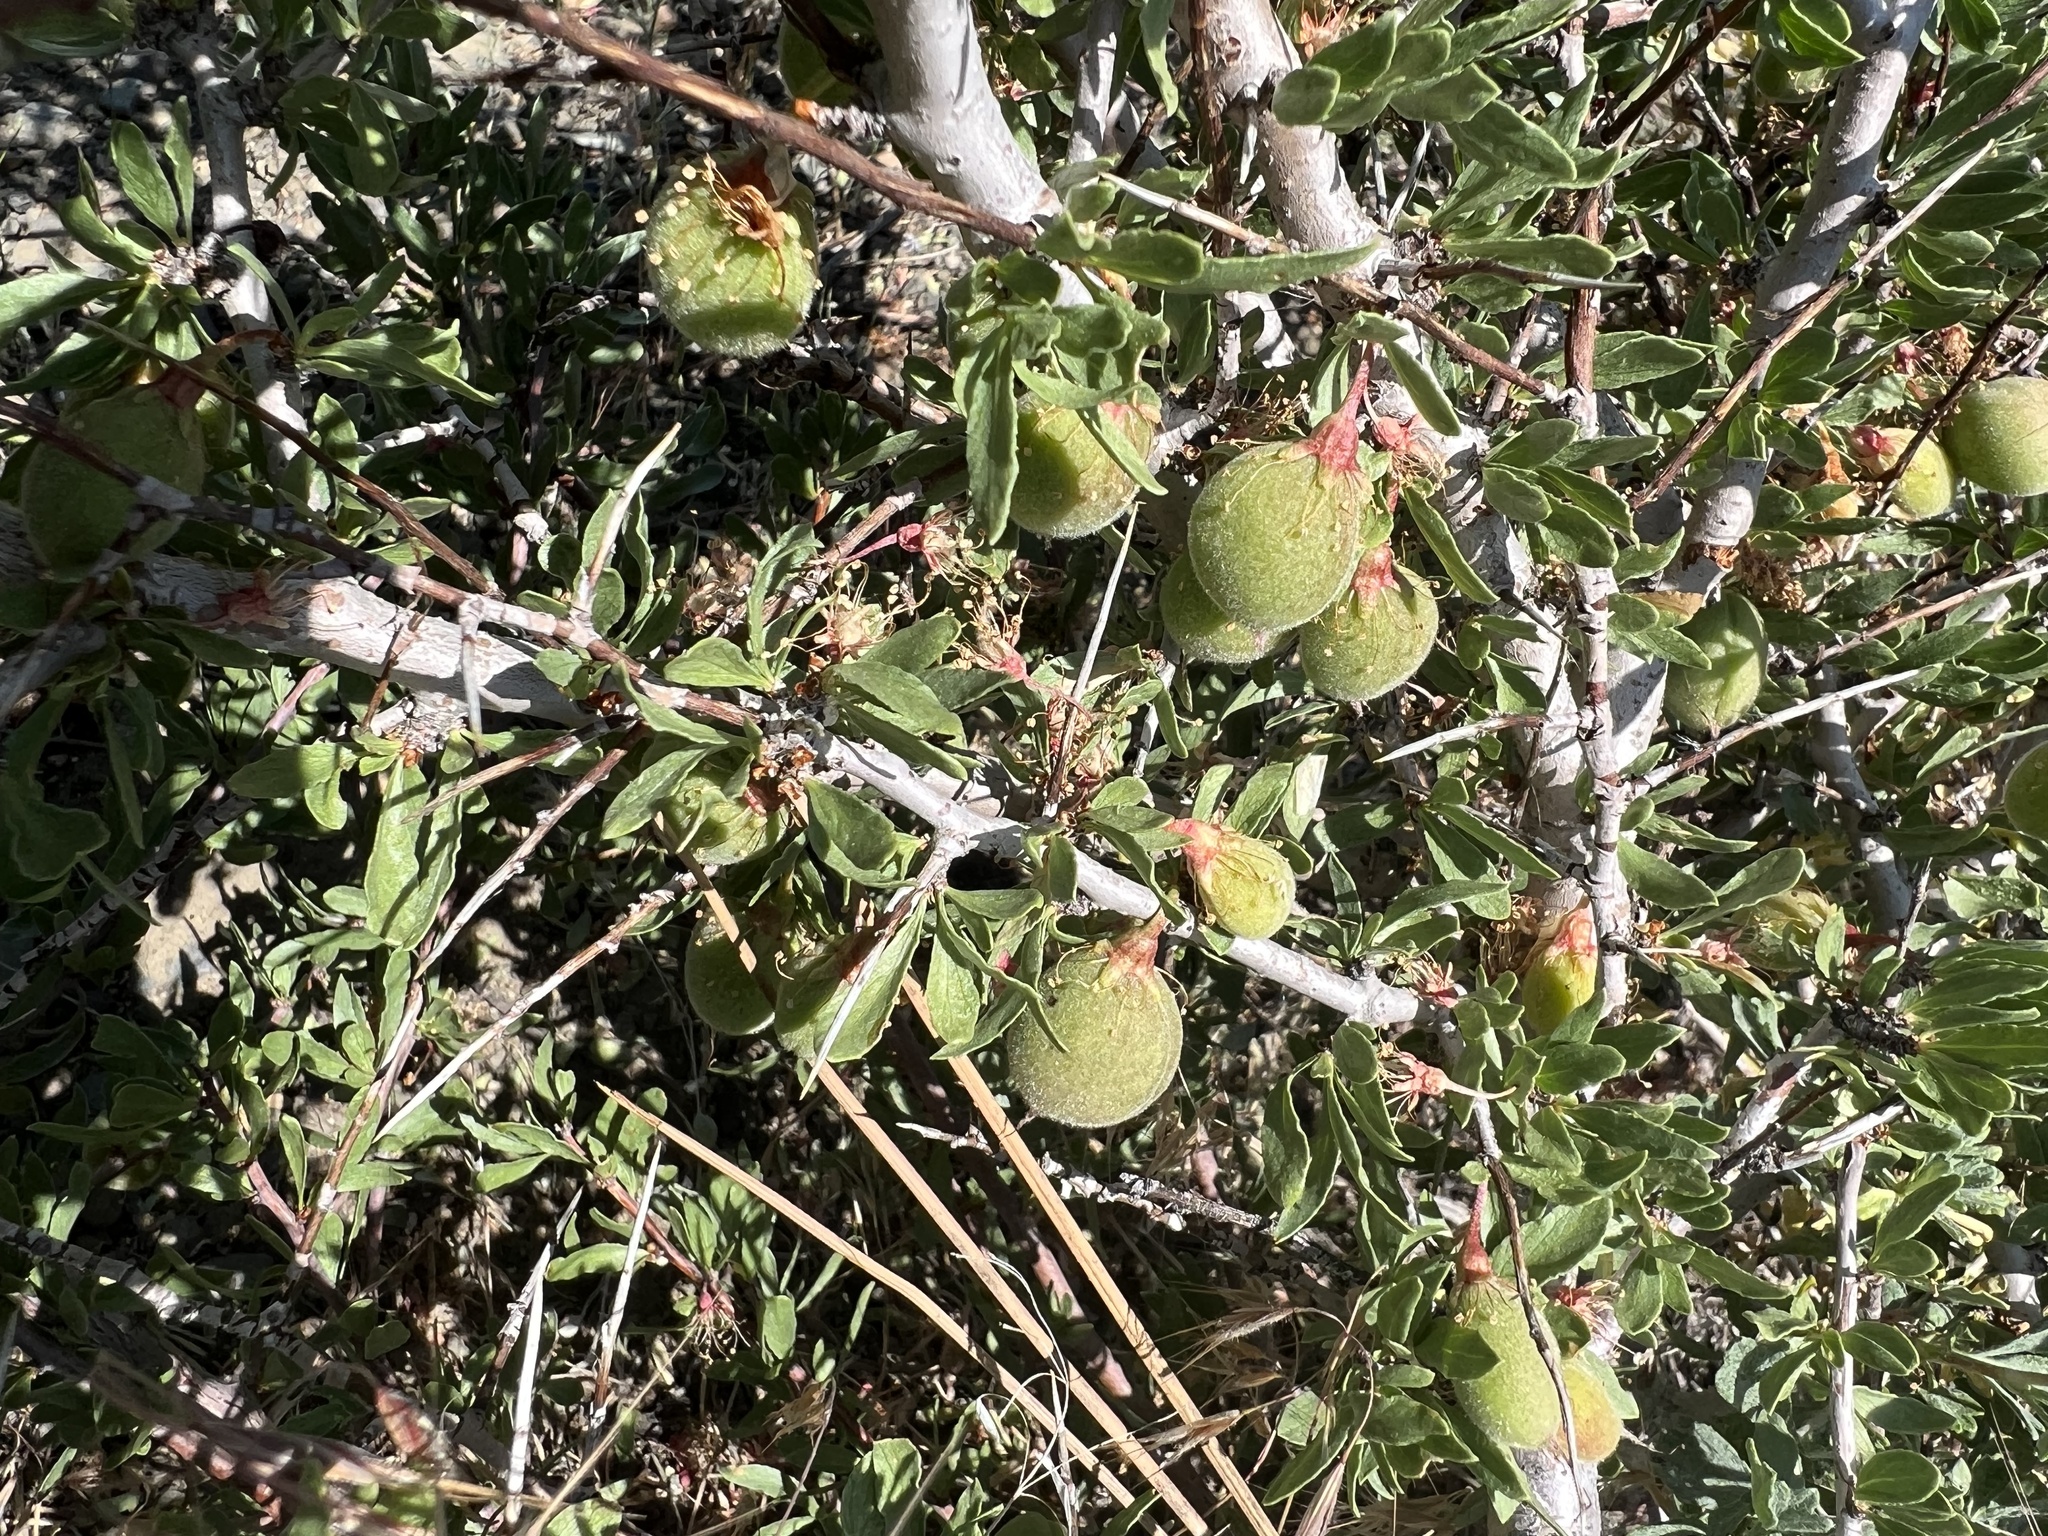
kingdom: Plantae
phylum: Tracheophyta
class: Magnoliopsida
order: Rosales
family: Rosaceae
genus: Prunus
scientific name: Prunus andersonii
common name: Desert peach
